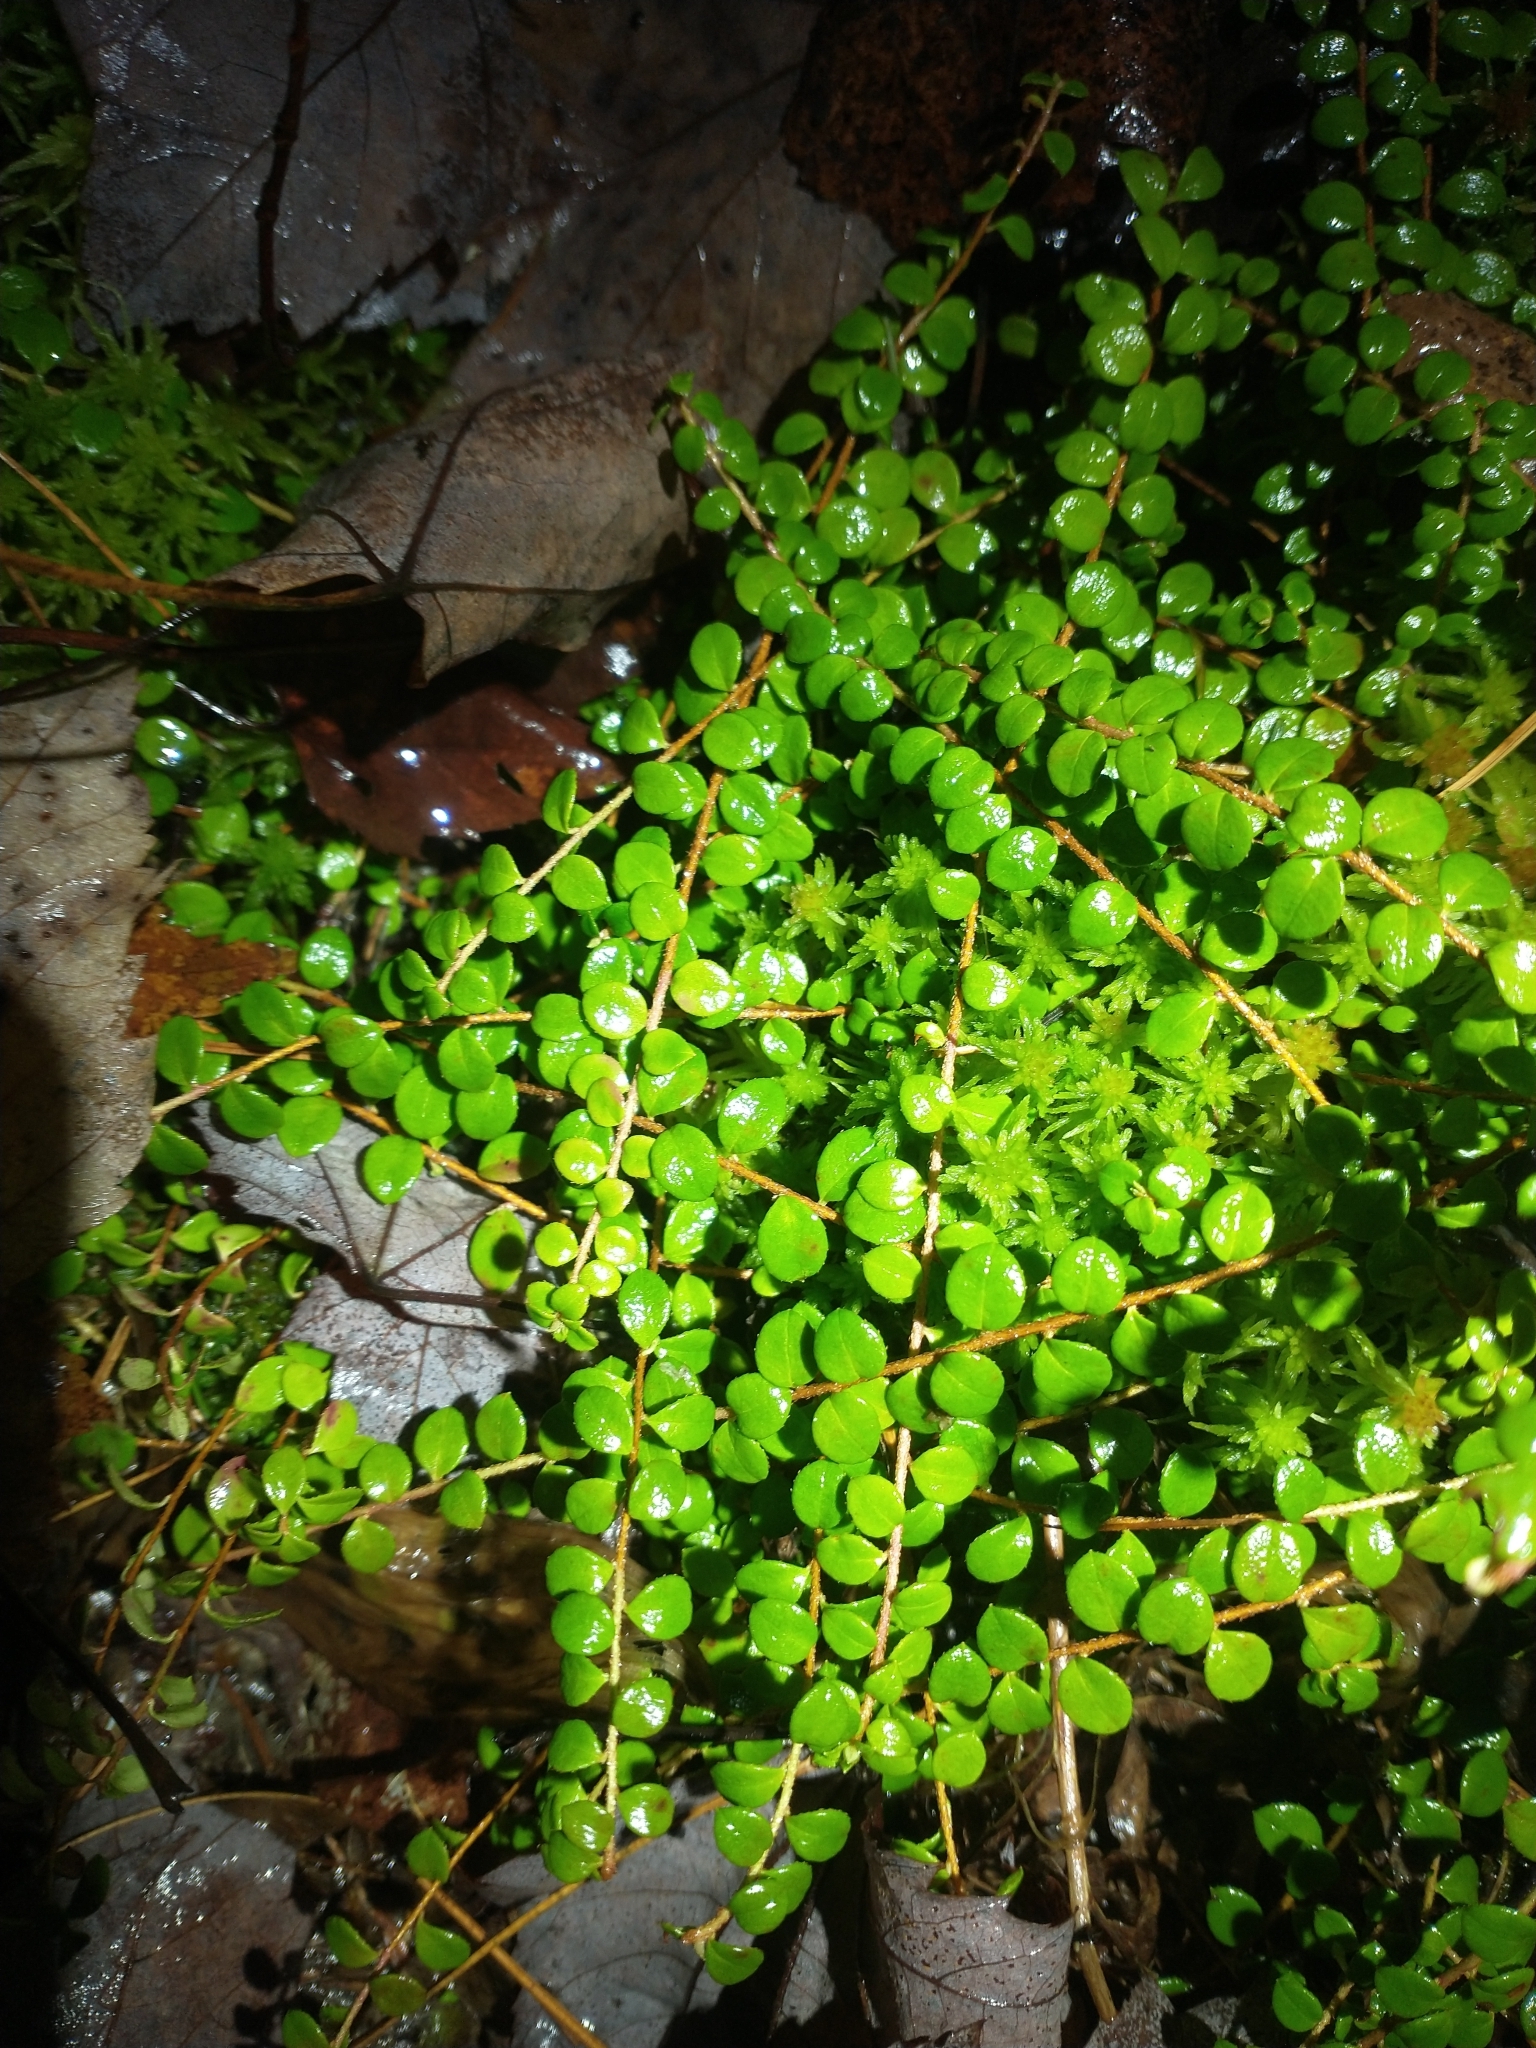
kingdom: Plantae
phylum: Tracheophyta
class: Magnoliopsida
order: Ericales
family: Ericaceae
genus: Gaultheria
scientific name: Gaultheria hispidula
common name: Cancer wintergreen
